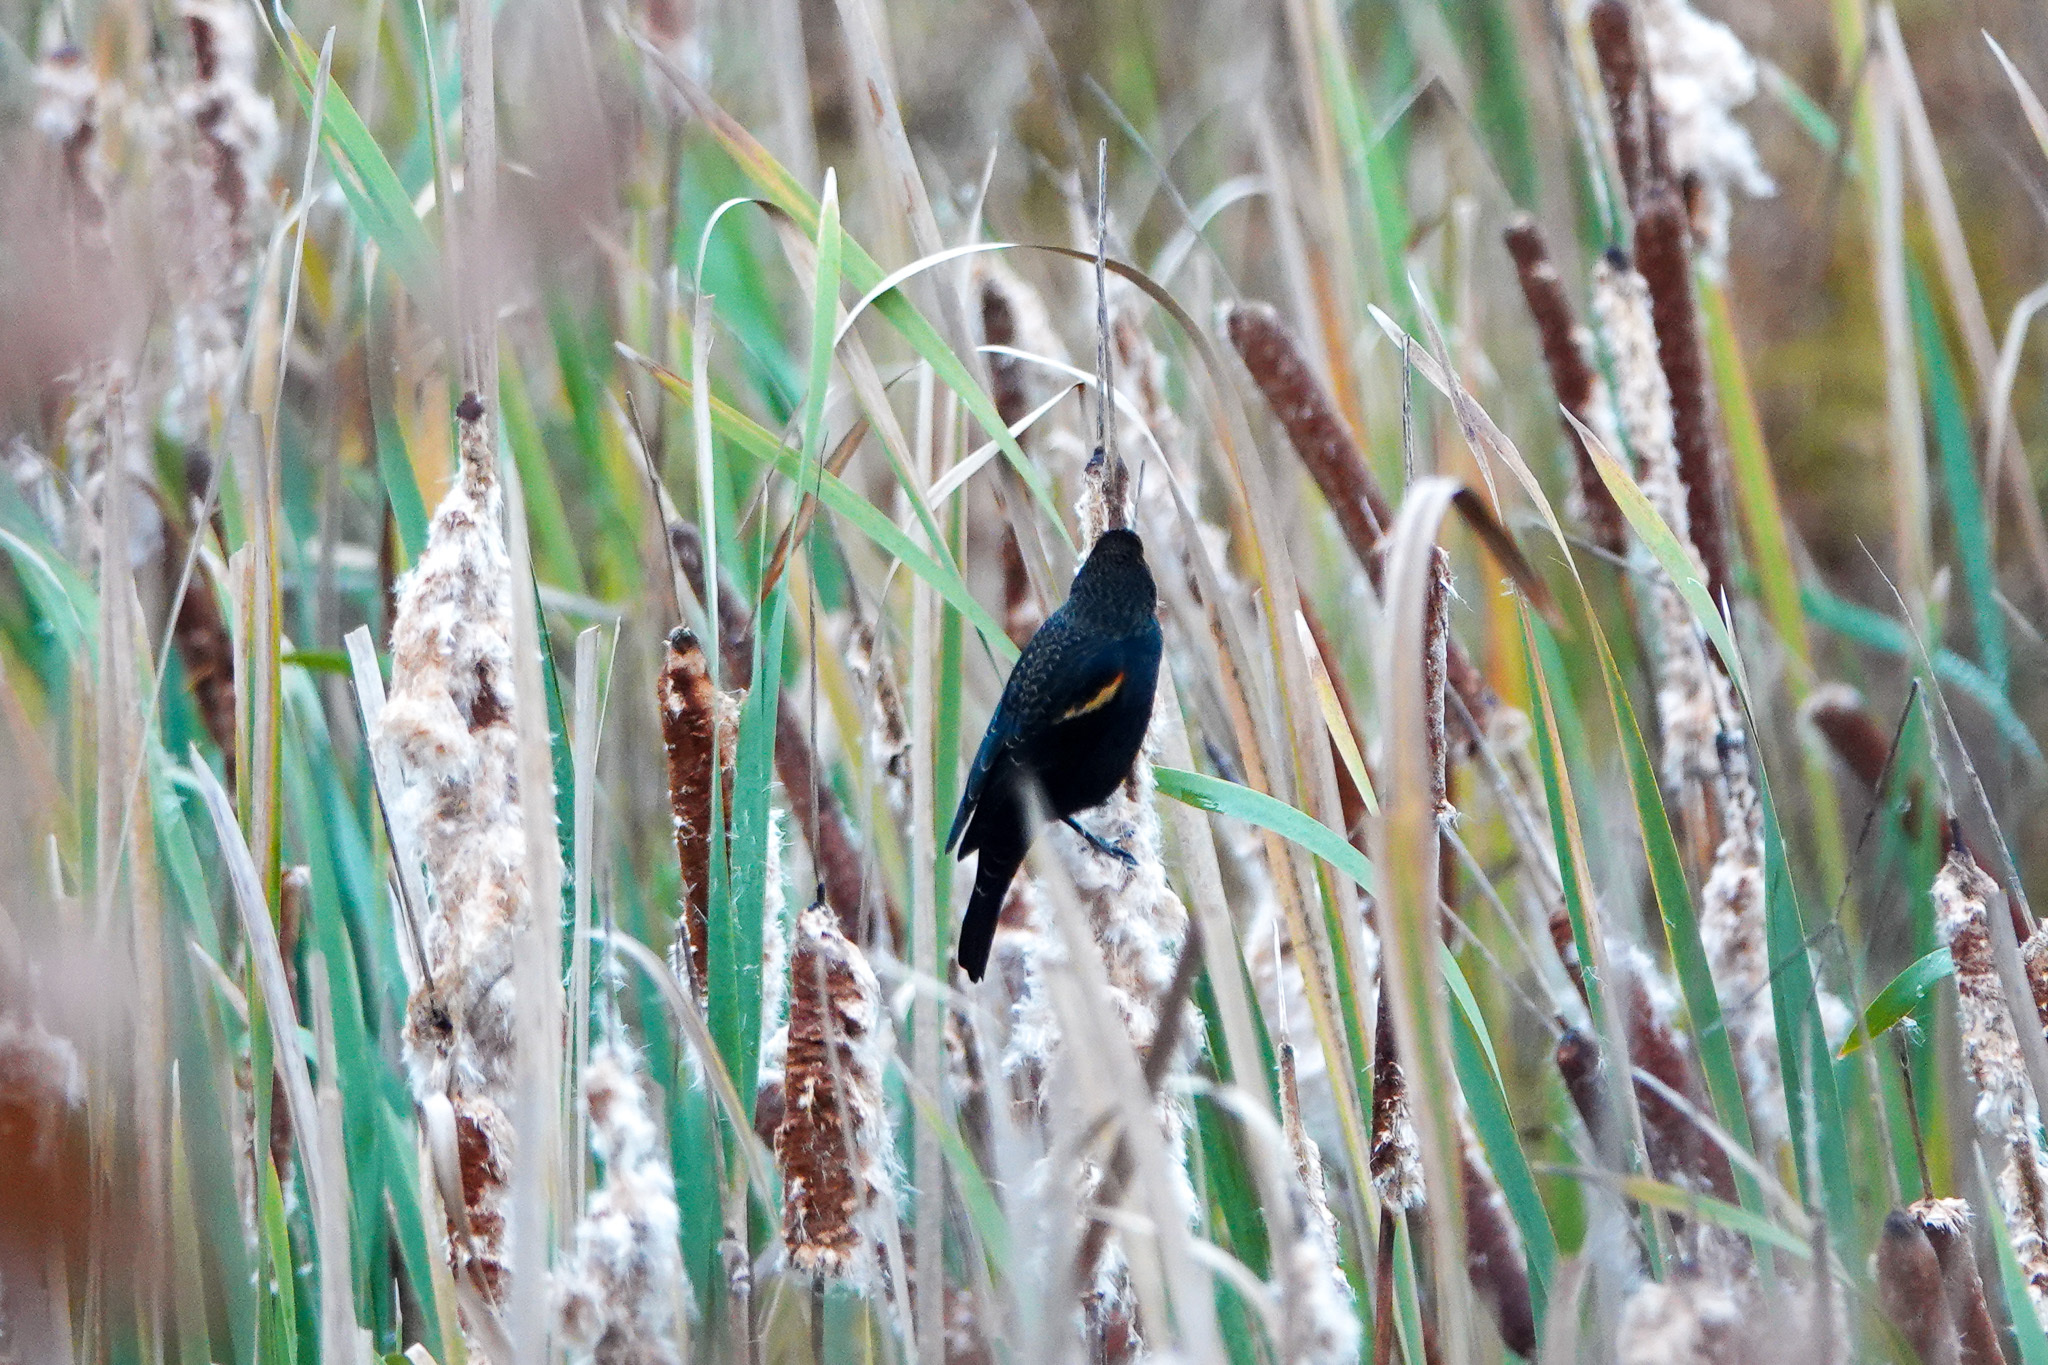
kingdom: Animalia
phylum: Chordata
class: Aves
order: Passeriformes
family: Icteridae
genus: Agelaius
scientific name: Agelaius phoeniceus
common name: Red-winged blackbird
